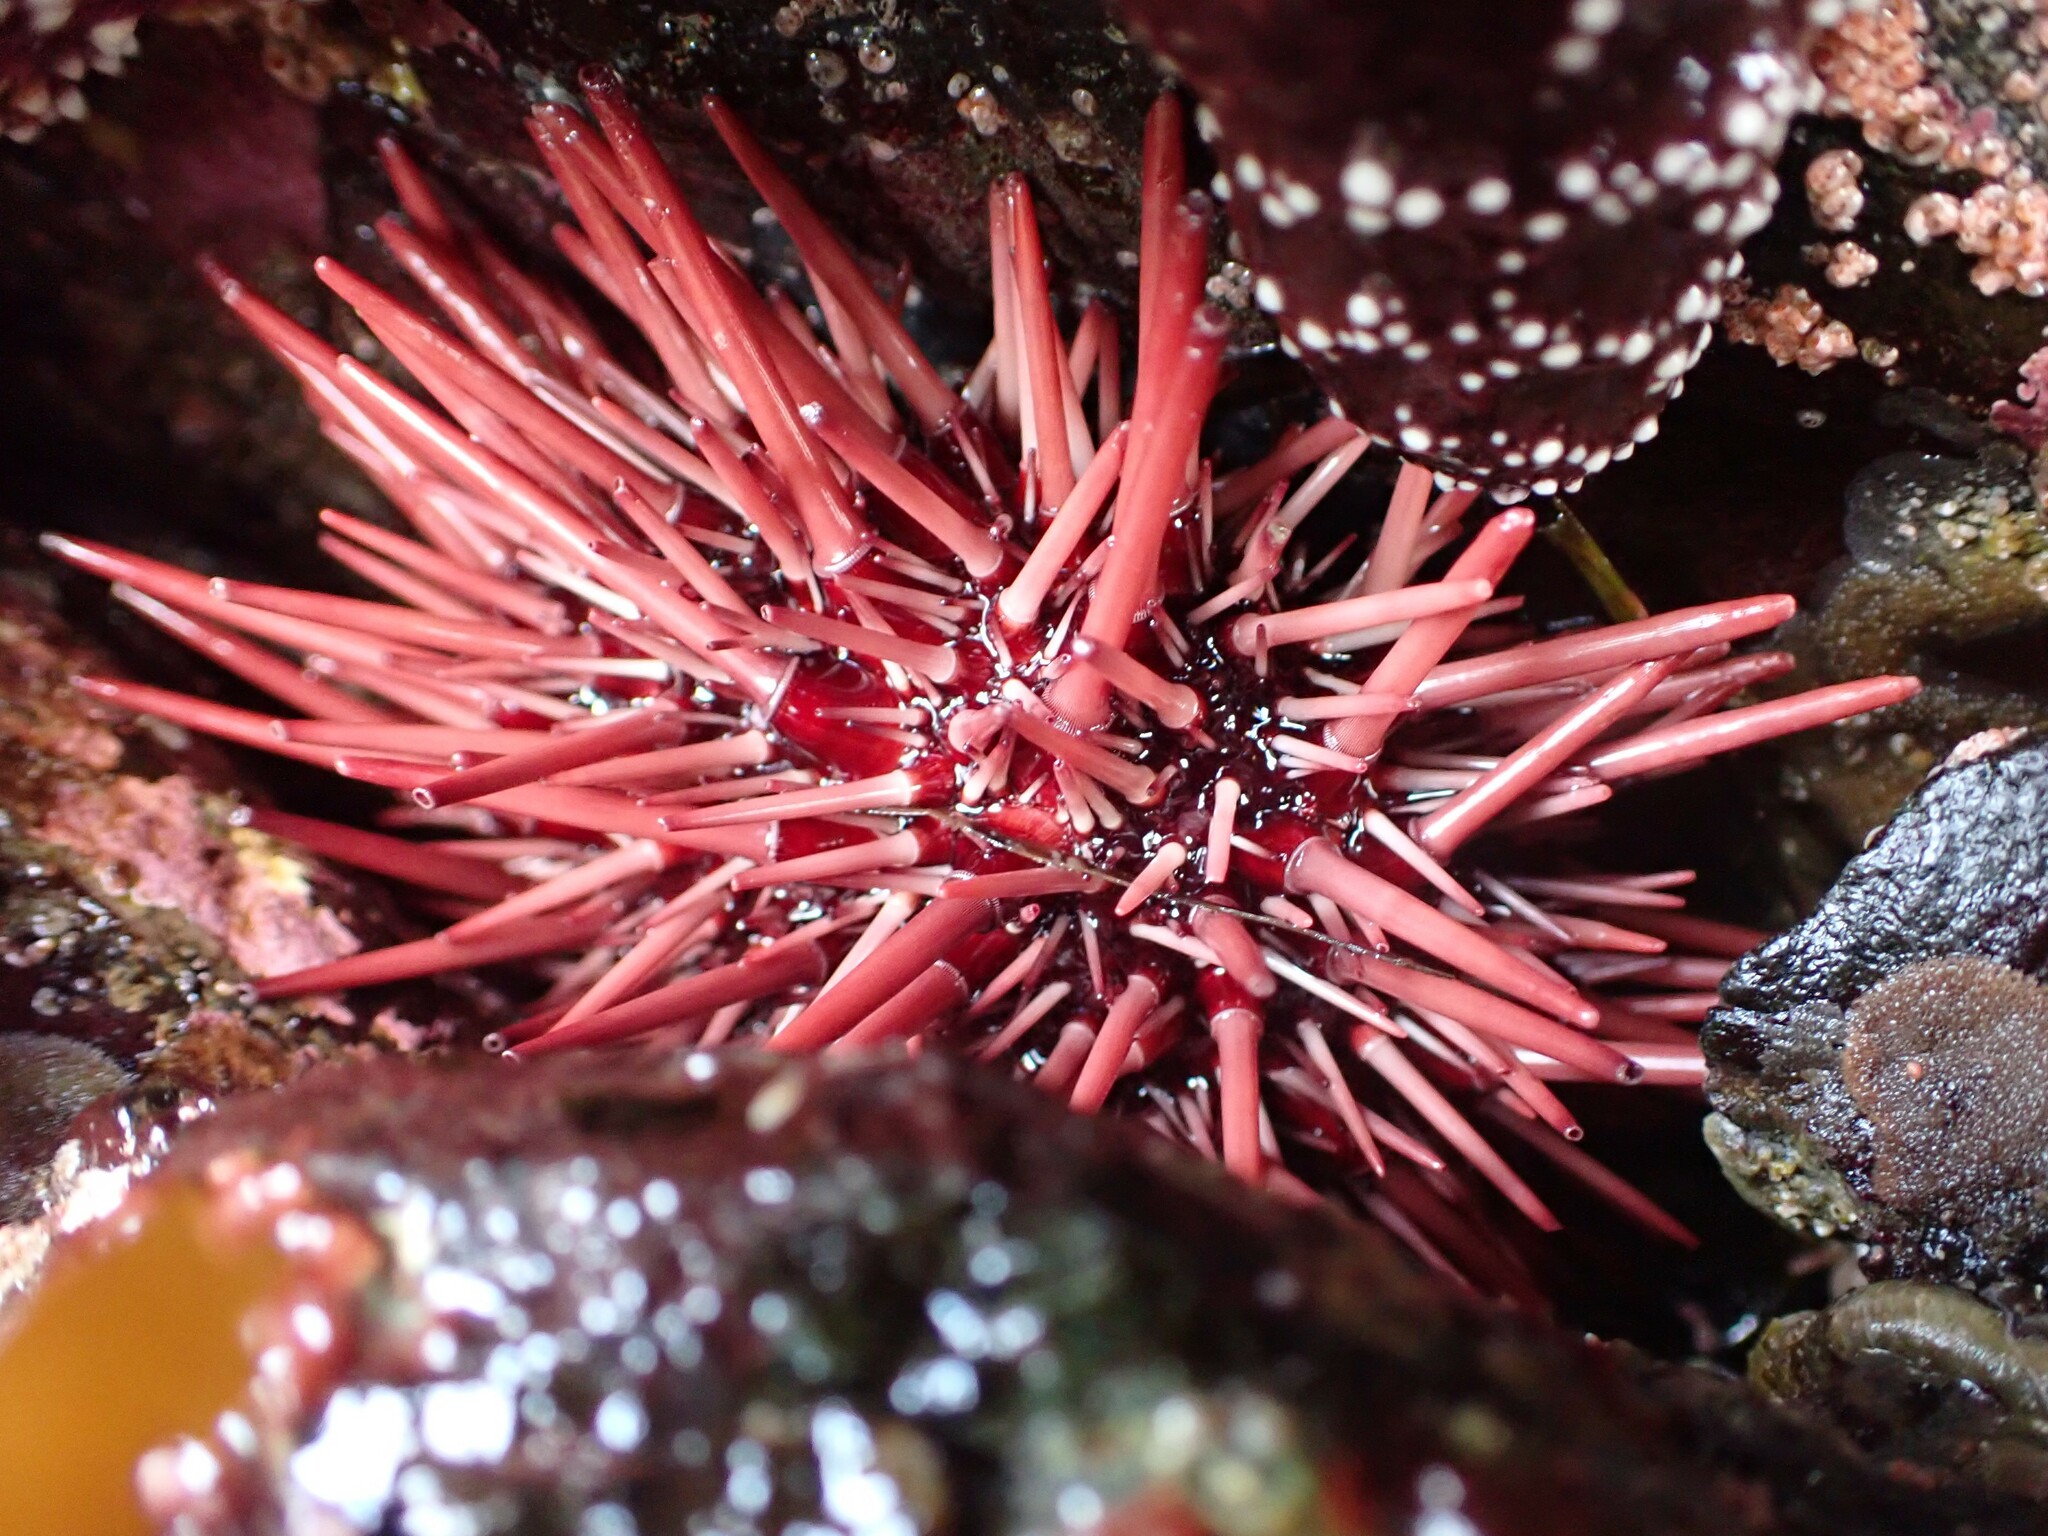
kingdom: Animalia
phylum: Echinodermata
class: Echinoidea
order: Camarodonta
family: Strongylocentrotidae
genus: Mesocentrotus
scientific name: Mesocentrotus franciscanus
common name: Red sea urchin
